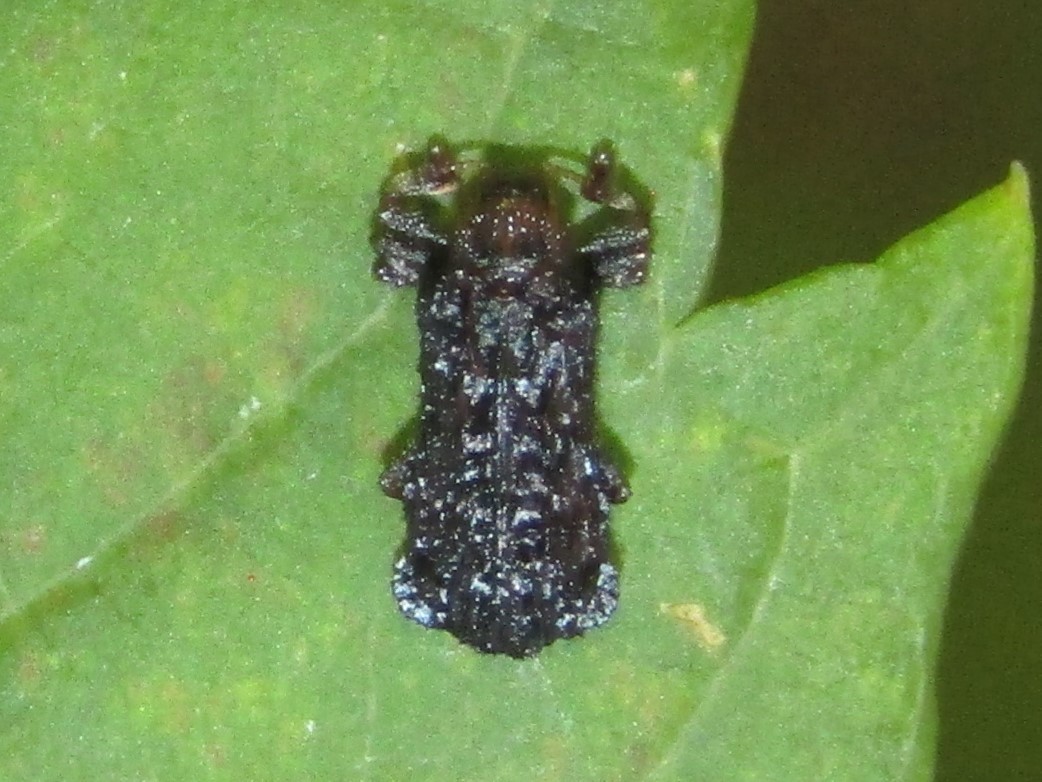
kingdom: Animalia
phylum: Arthropoda
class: Insecta
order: Coleoptera
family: Chrysomelidae
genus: Octotoma
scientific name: Octotoma plicatula
